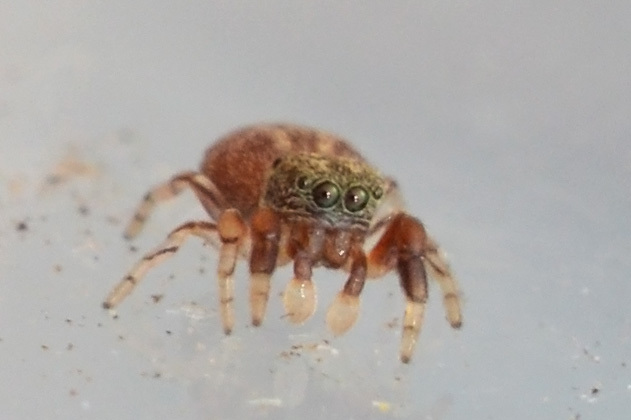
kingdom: Animalia
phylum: Arthropoda
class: Arachnida
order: Araneae
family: Salticidae
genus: Ballus
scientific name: Ballus chalybeius
